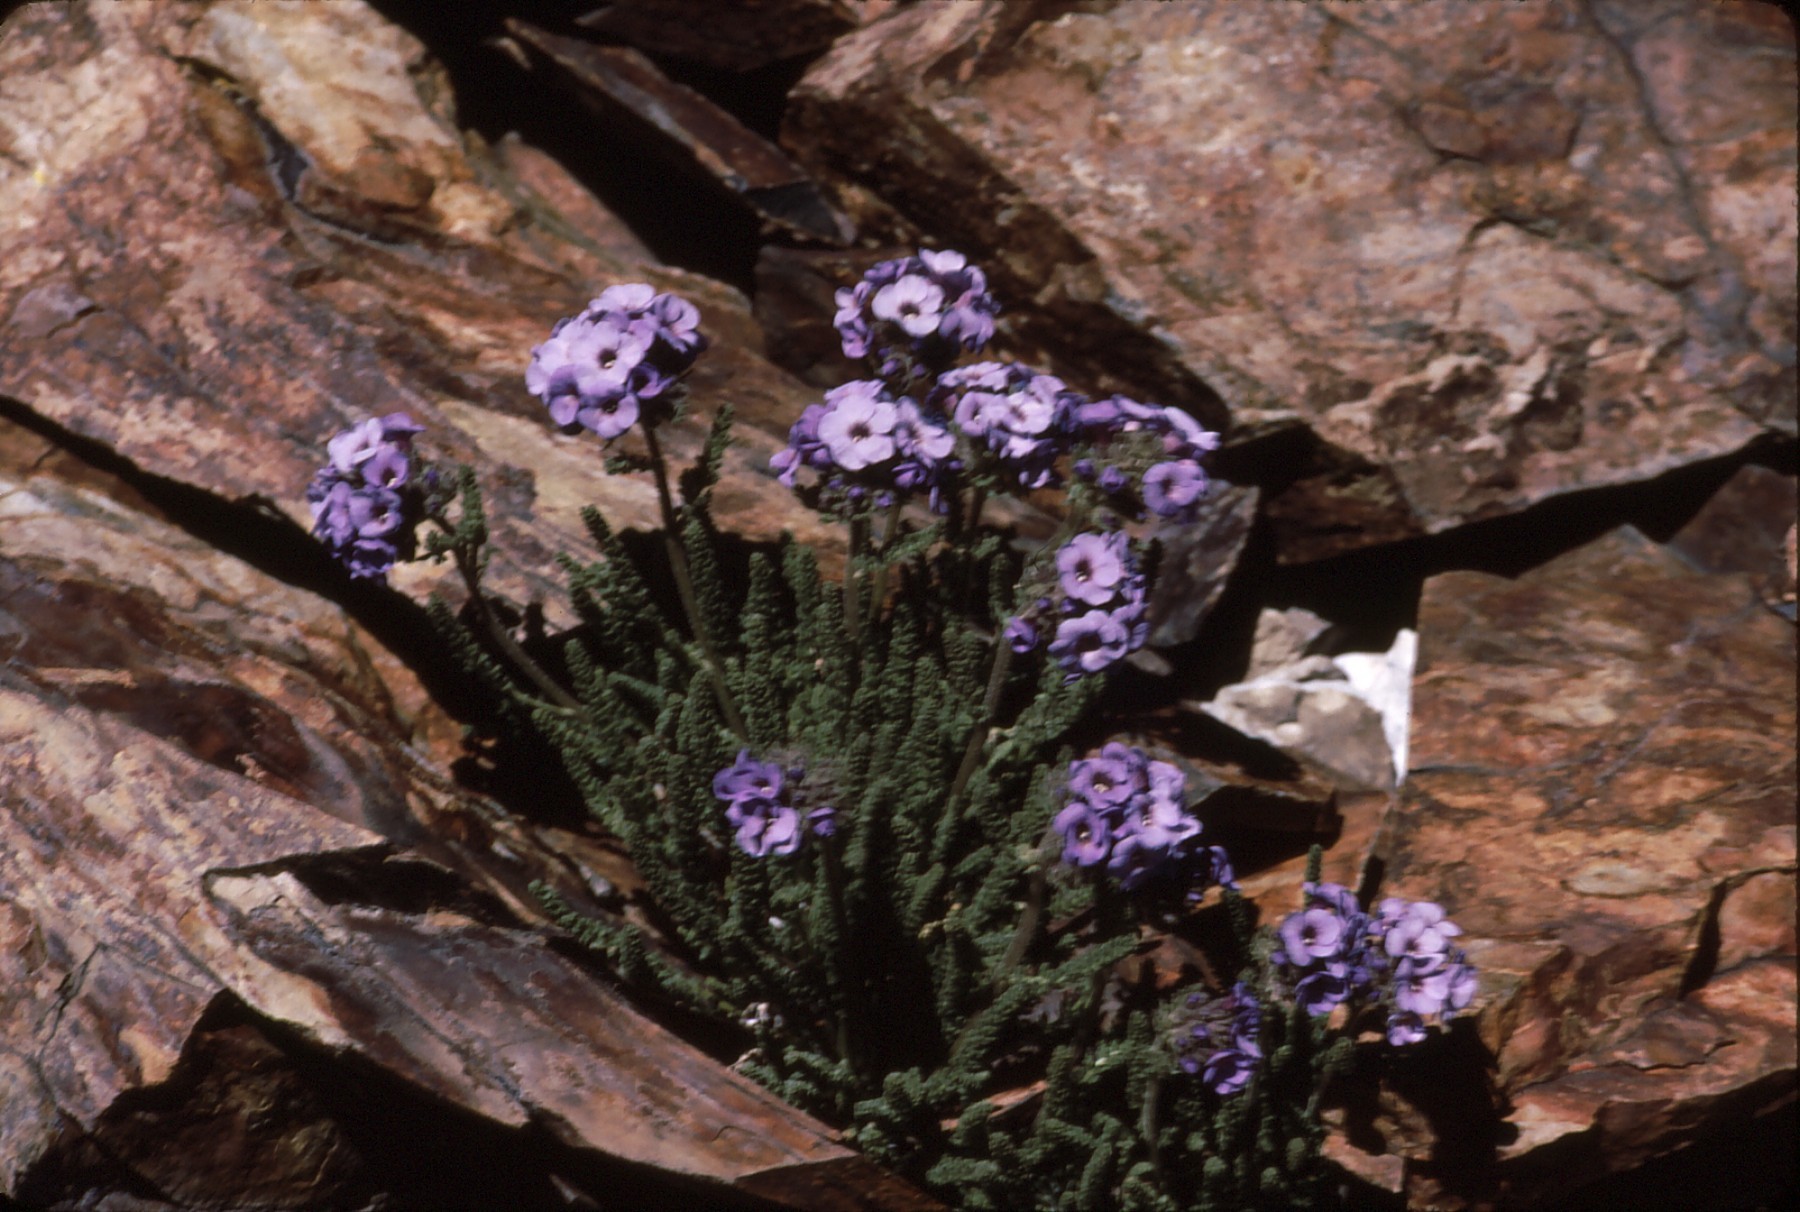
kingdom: Plantae
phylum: Tracheophyta
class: Magnoliopsida
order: Ericales
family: Polemoniaceae
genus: Polemonium
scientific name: Polemonium eximium
